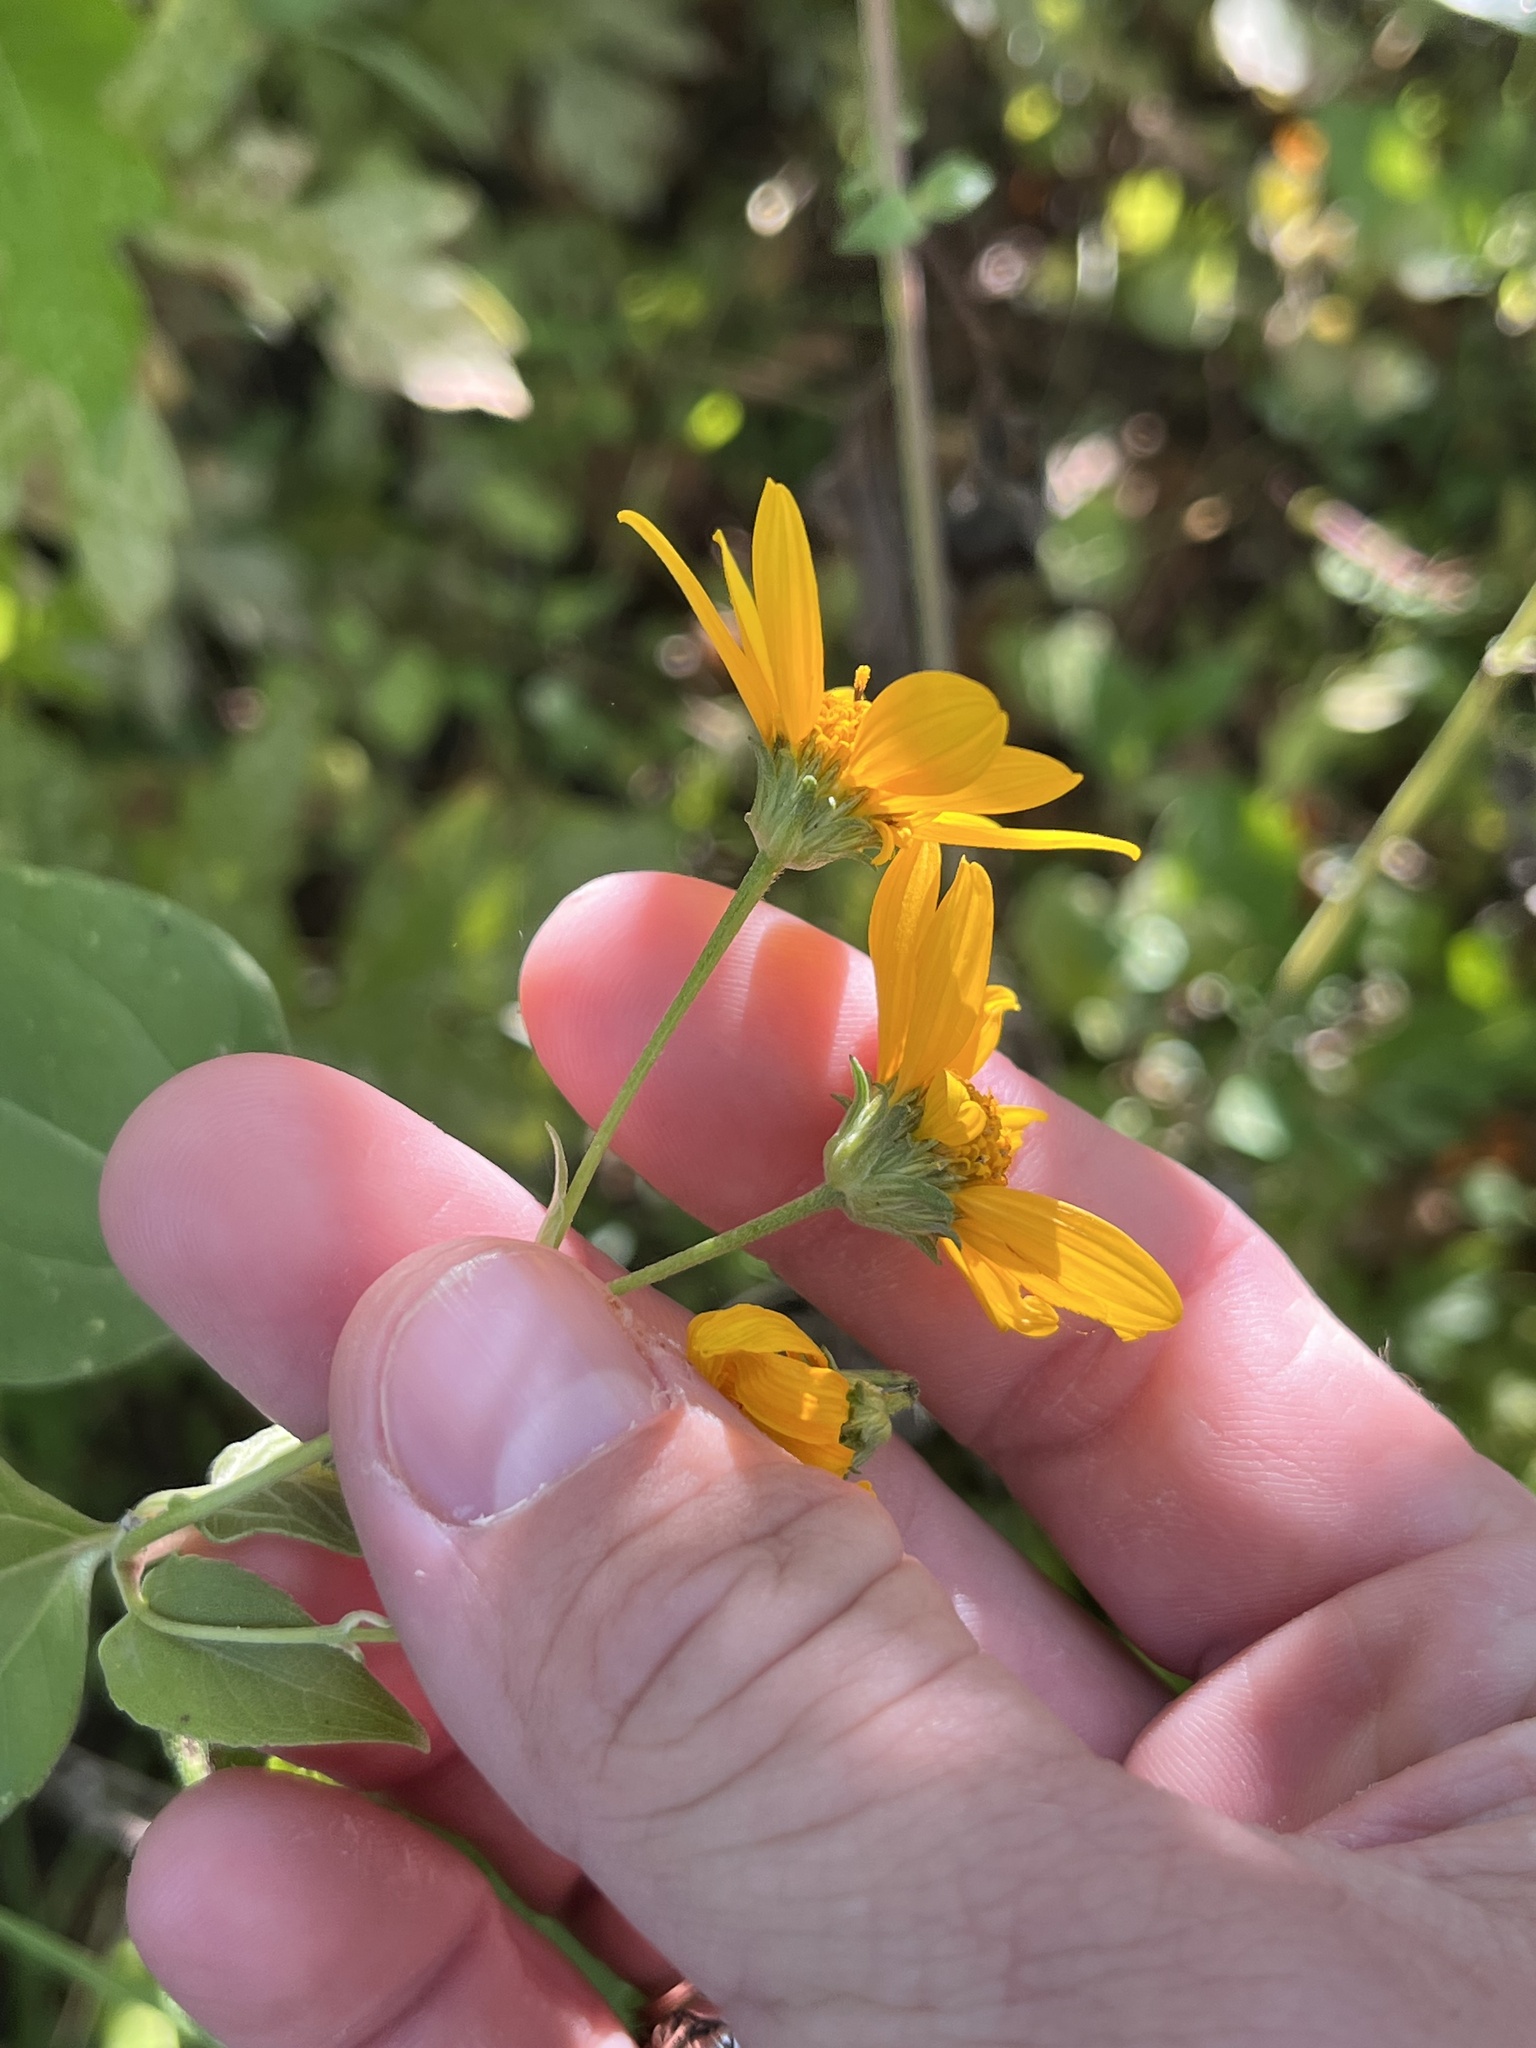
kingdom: Plantae
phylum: Tracheophyta
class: Magnoliopsida
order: Asterales
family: Asteraceae
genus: Viguiera
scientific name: Viguiera dentata
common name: Toothleaf
